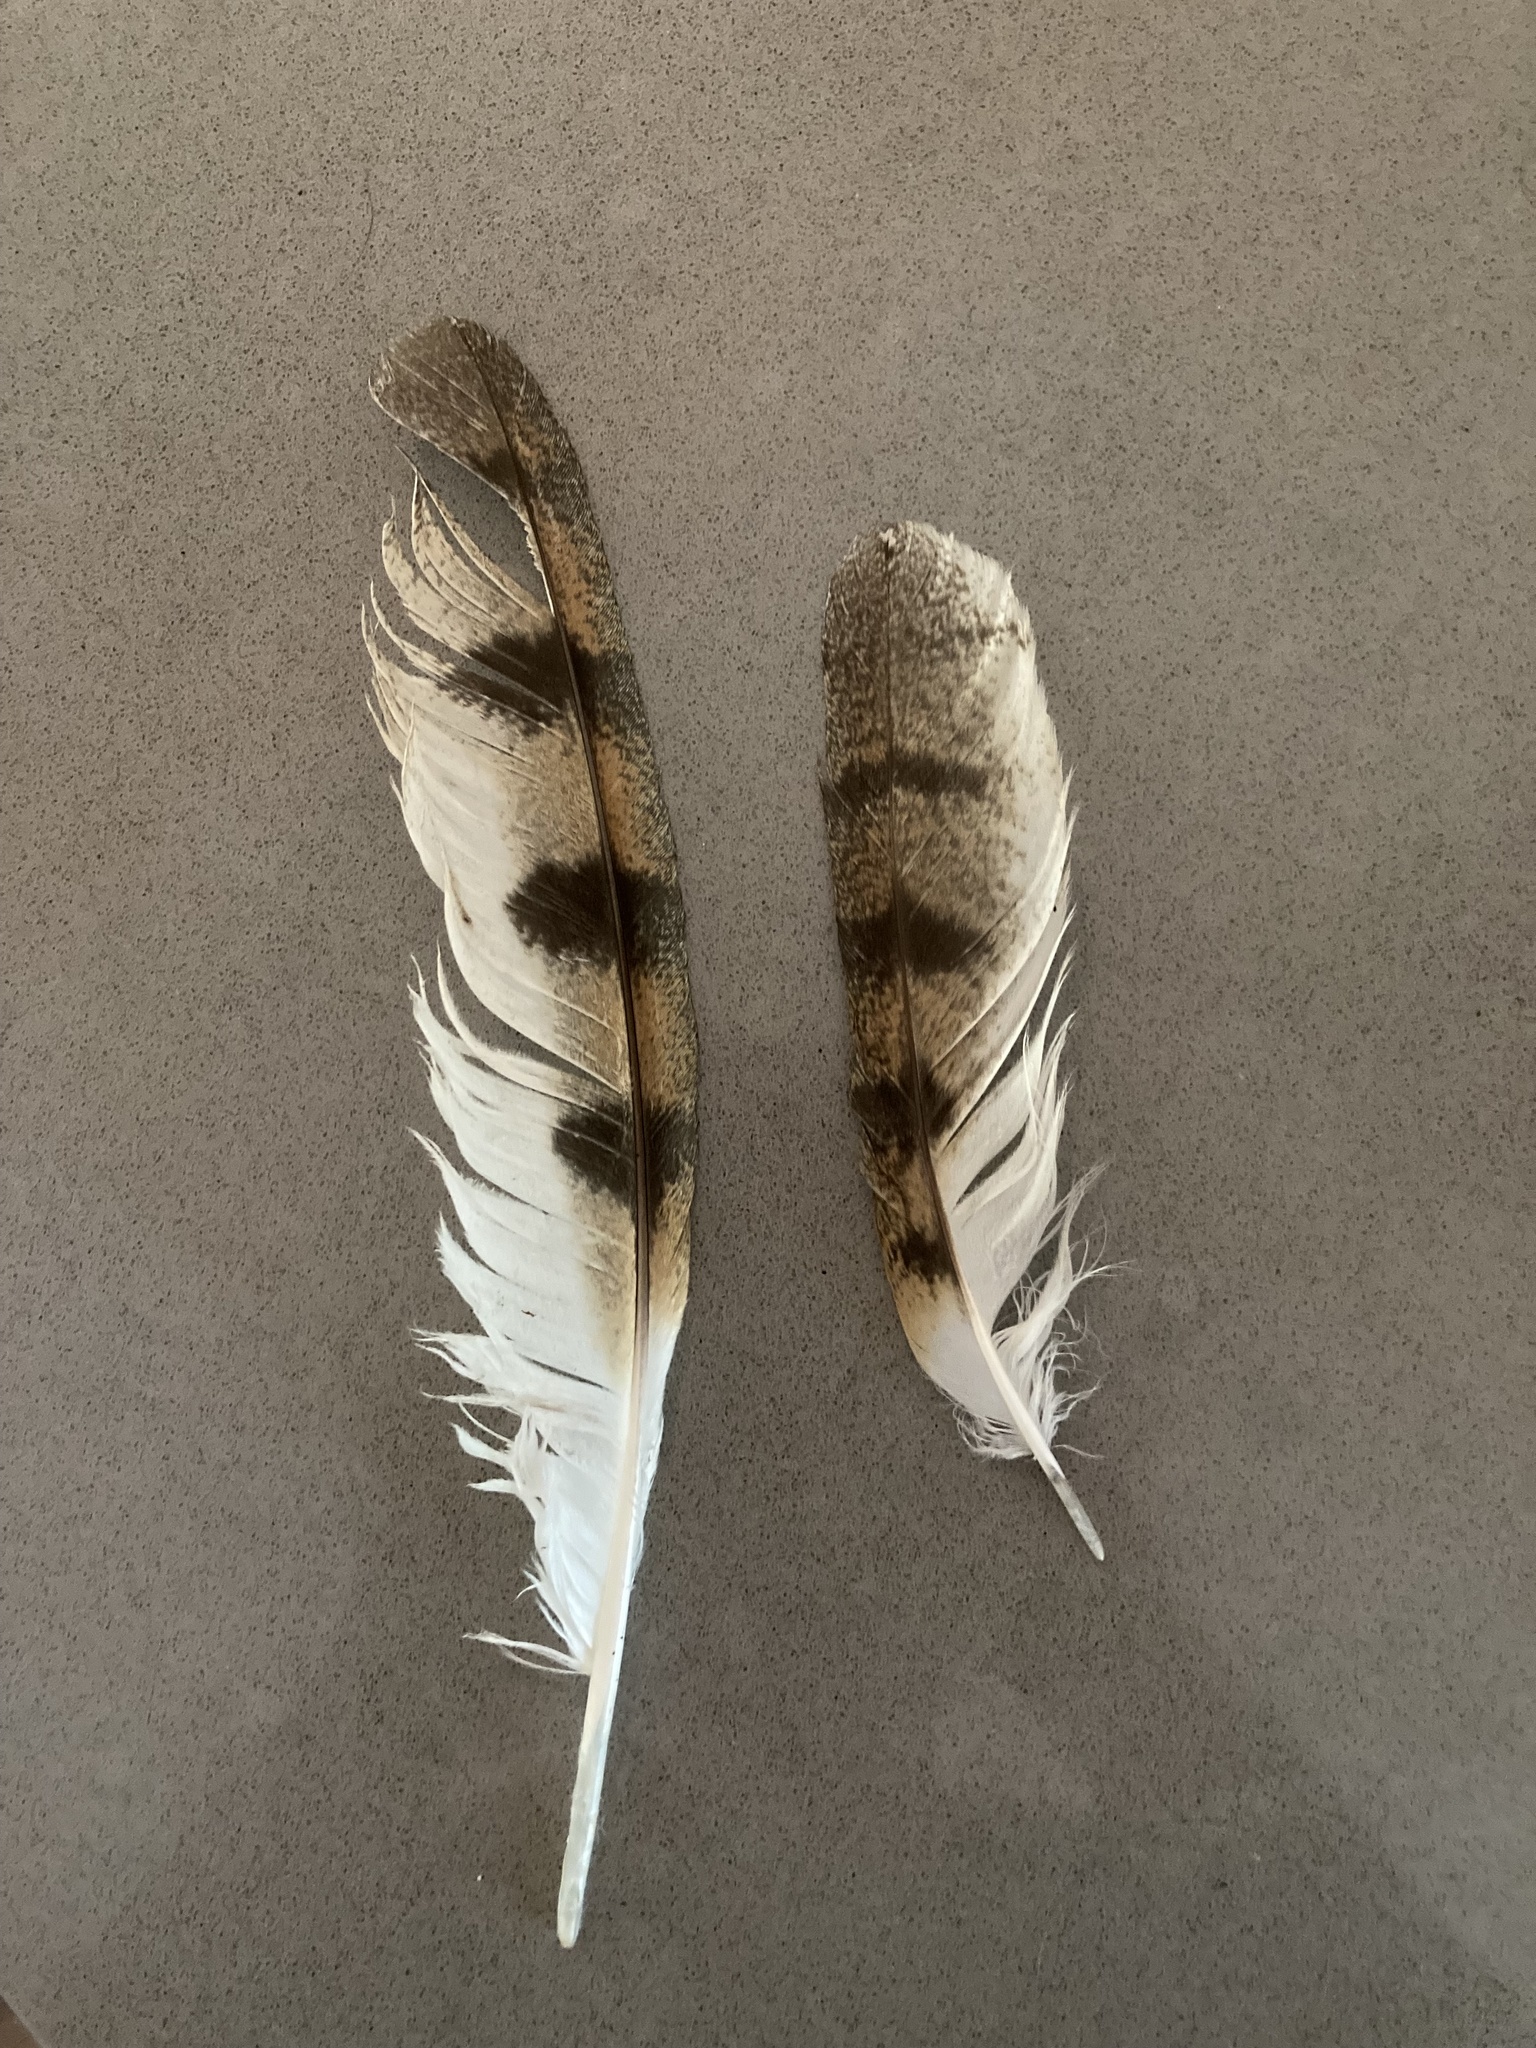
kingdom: Animalia
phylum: Chordata
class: Aves
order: Strigiformes
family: Tytonidae
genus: Tyto
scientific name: Tyto alba
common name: Barn owl
